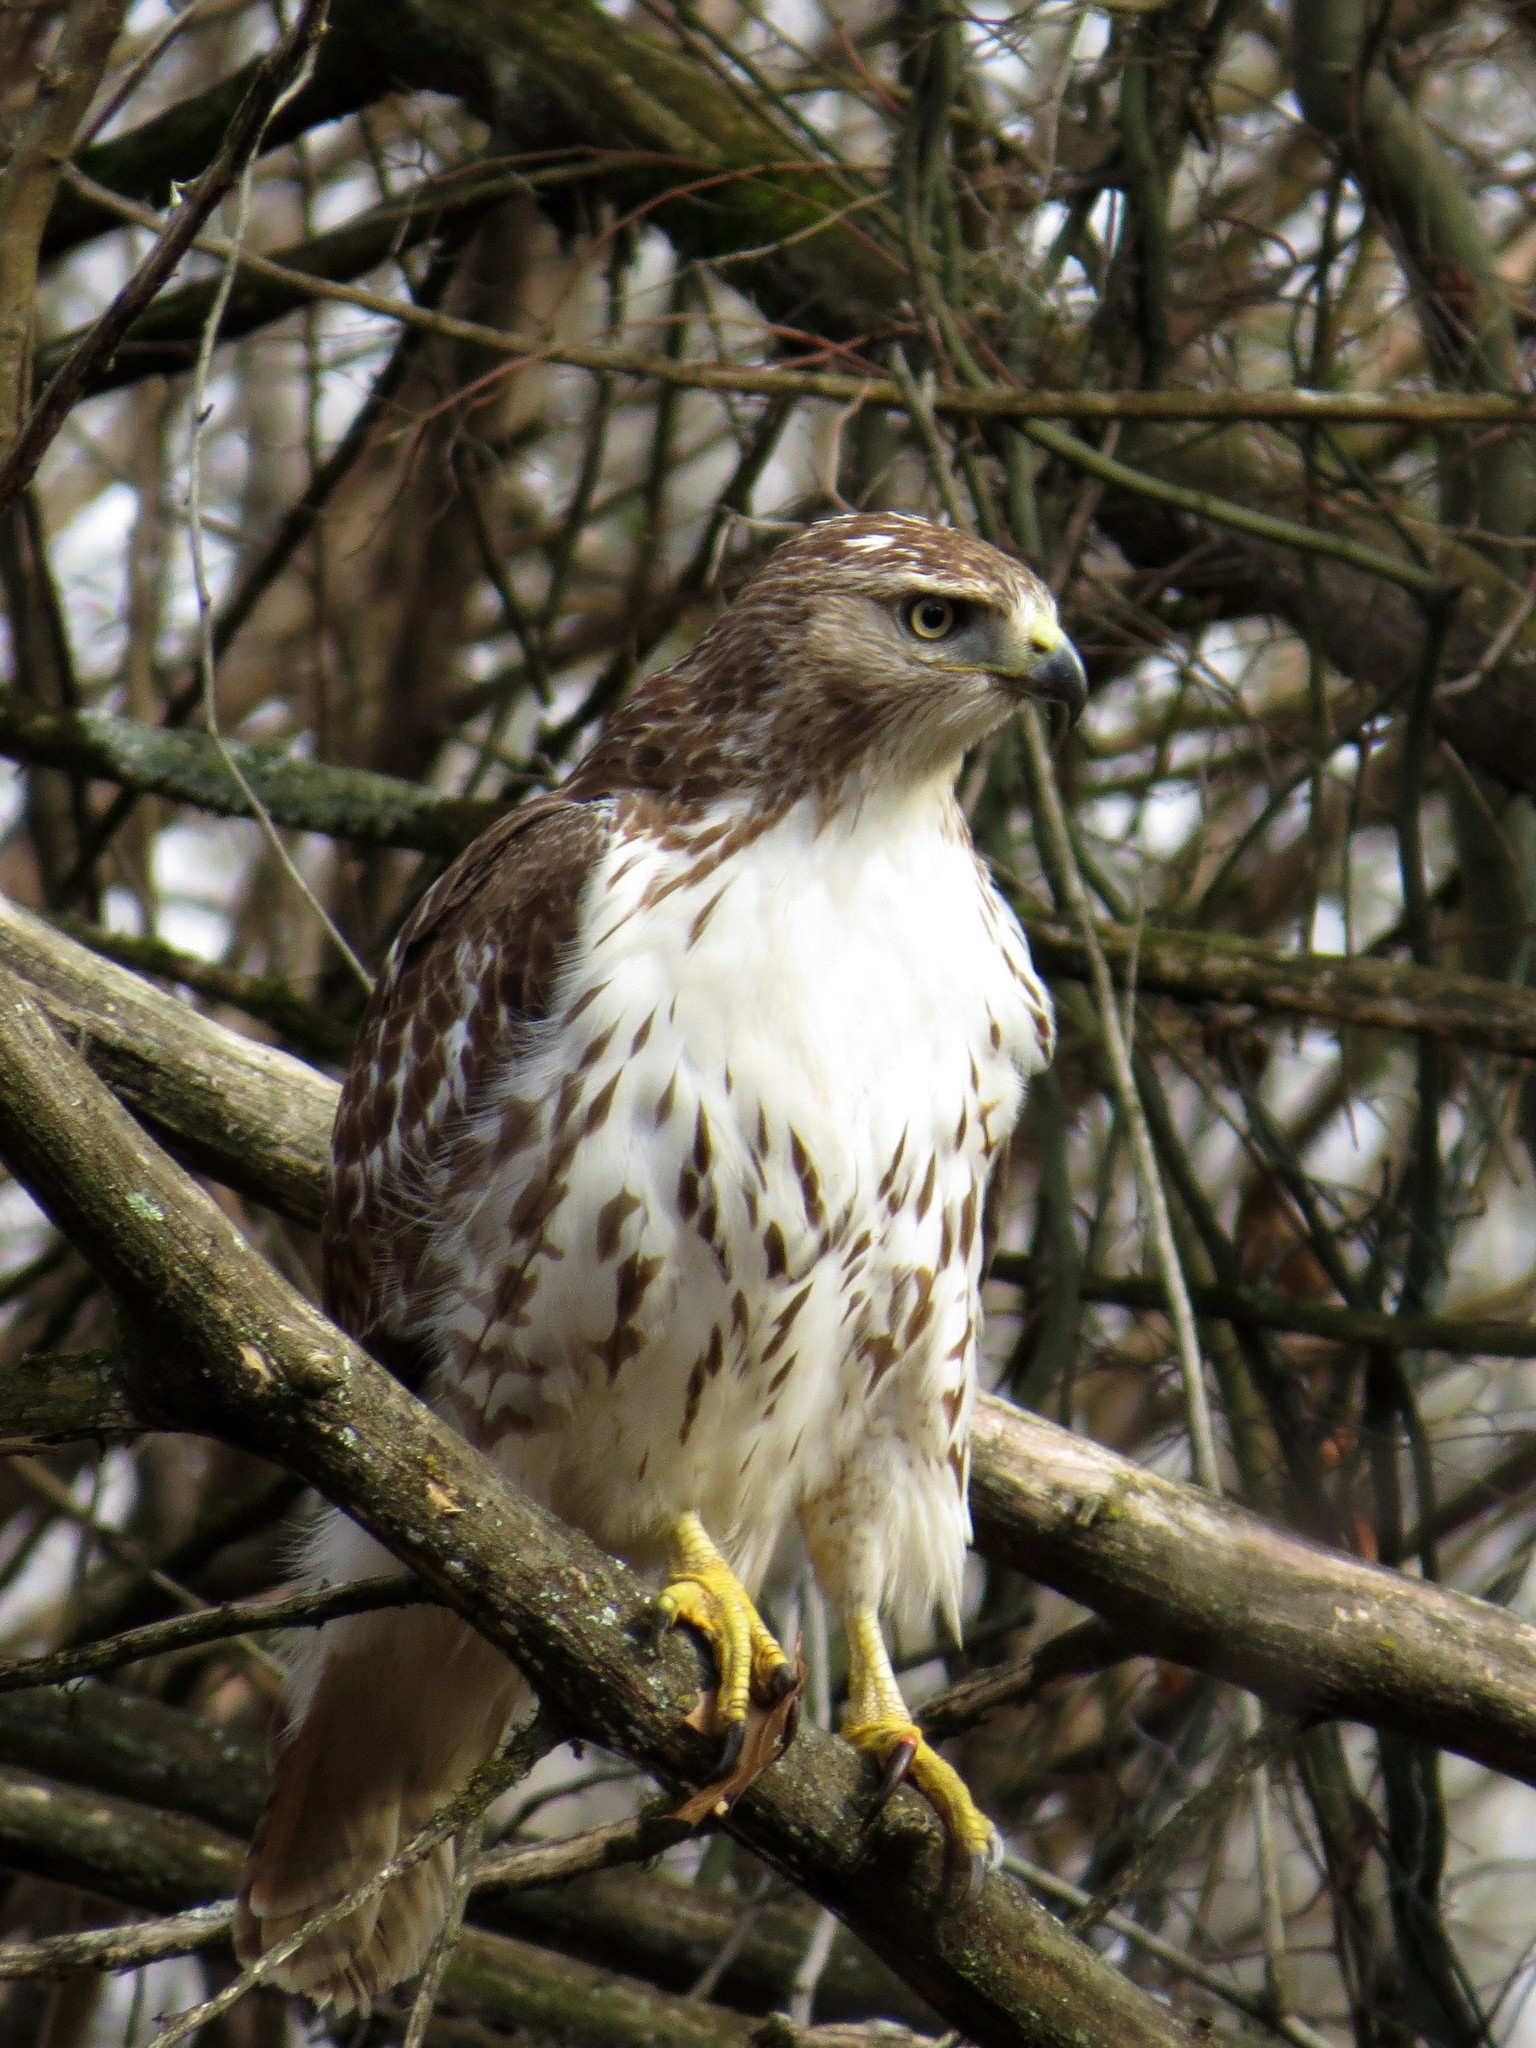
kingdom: Animalia
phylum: Chordata
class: Aves
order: Accipitriformes
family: Accipitridae
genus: Buteo
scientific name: Buteo jamaicensis
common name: Red-tailed hawk
